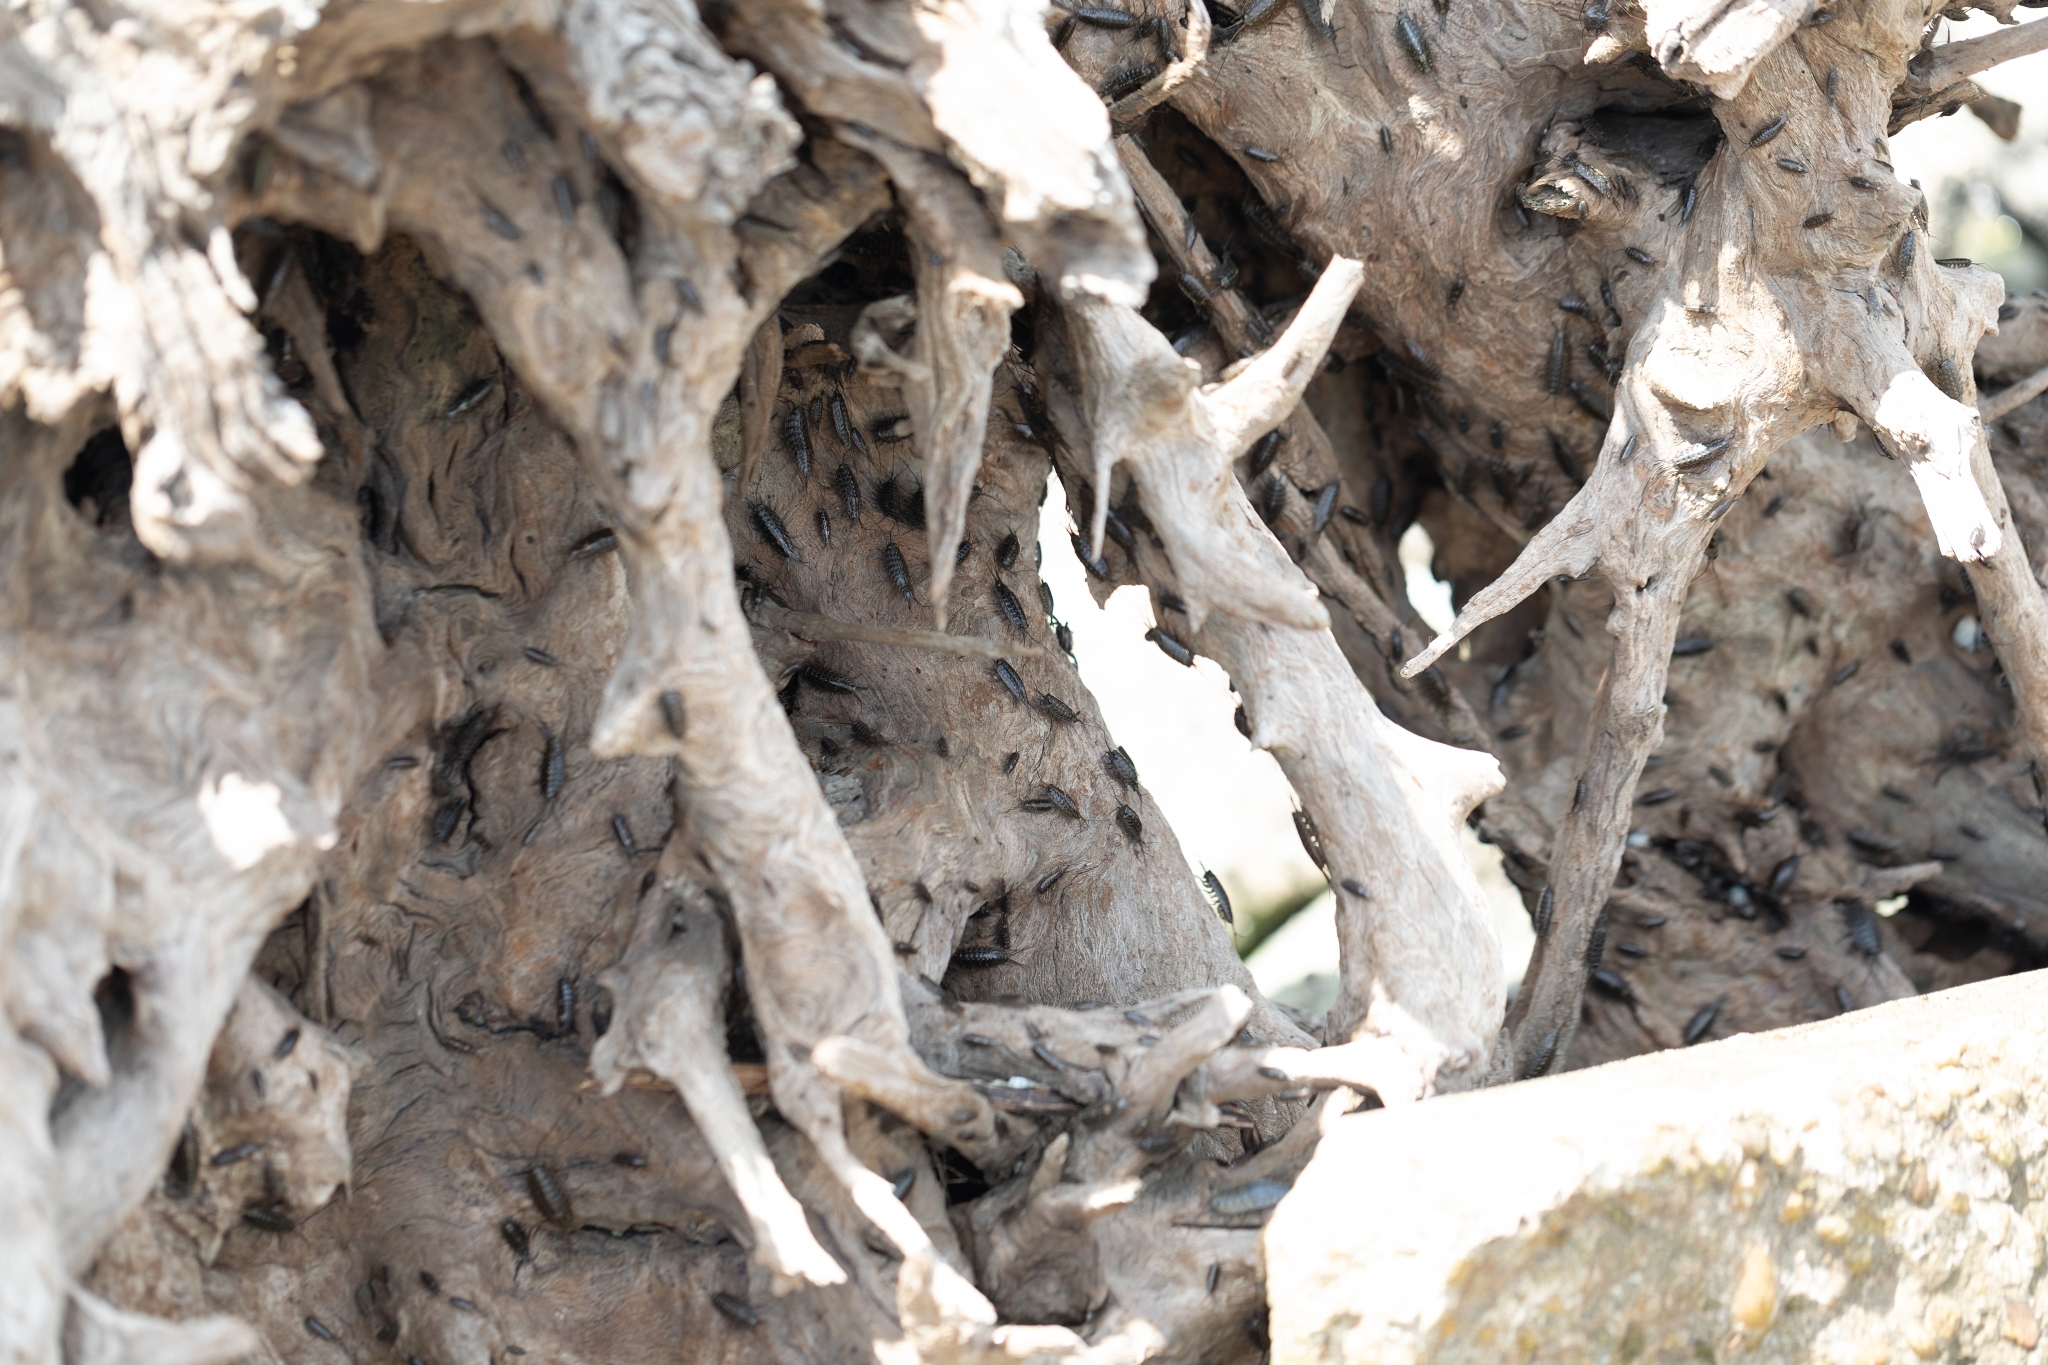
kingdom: Animalia
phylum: Arthropoda
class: Malacostraca
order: Isopoda
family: Ligiidae
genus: Ligia
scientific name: Ligia exotica
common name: Wharf roach
